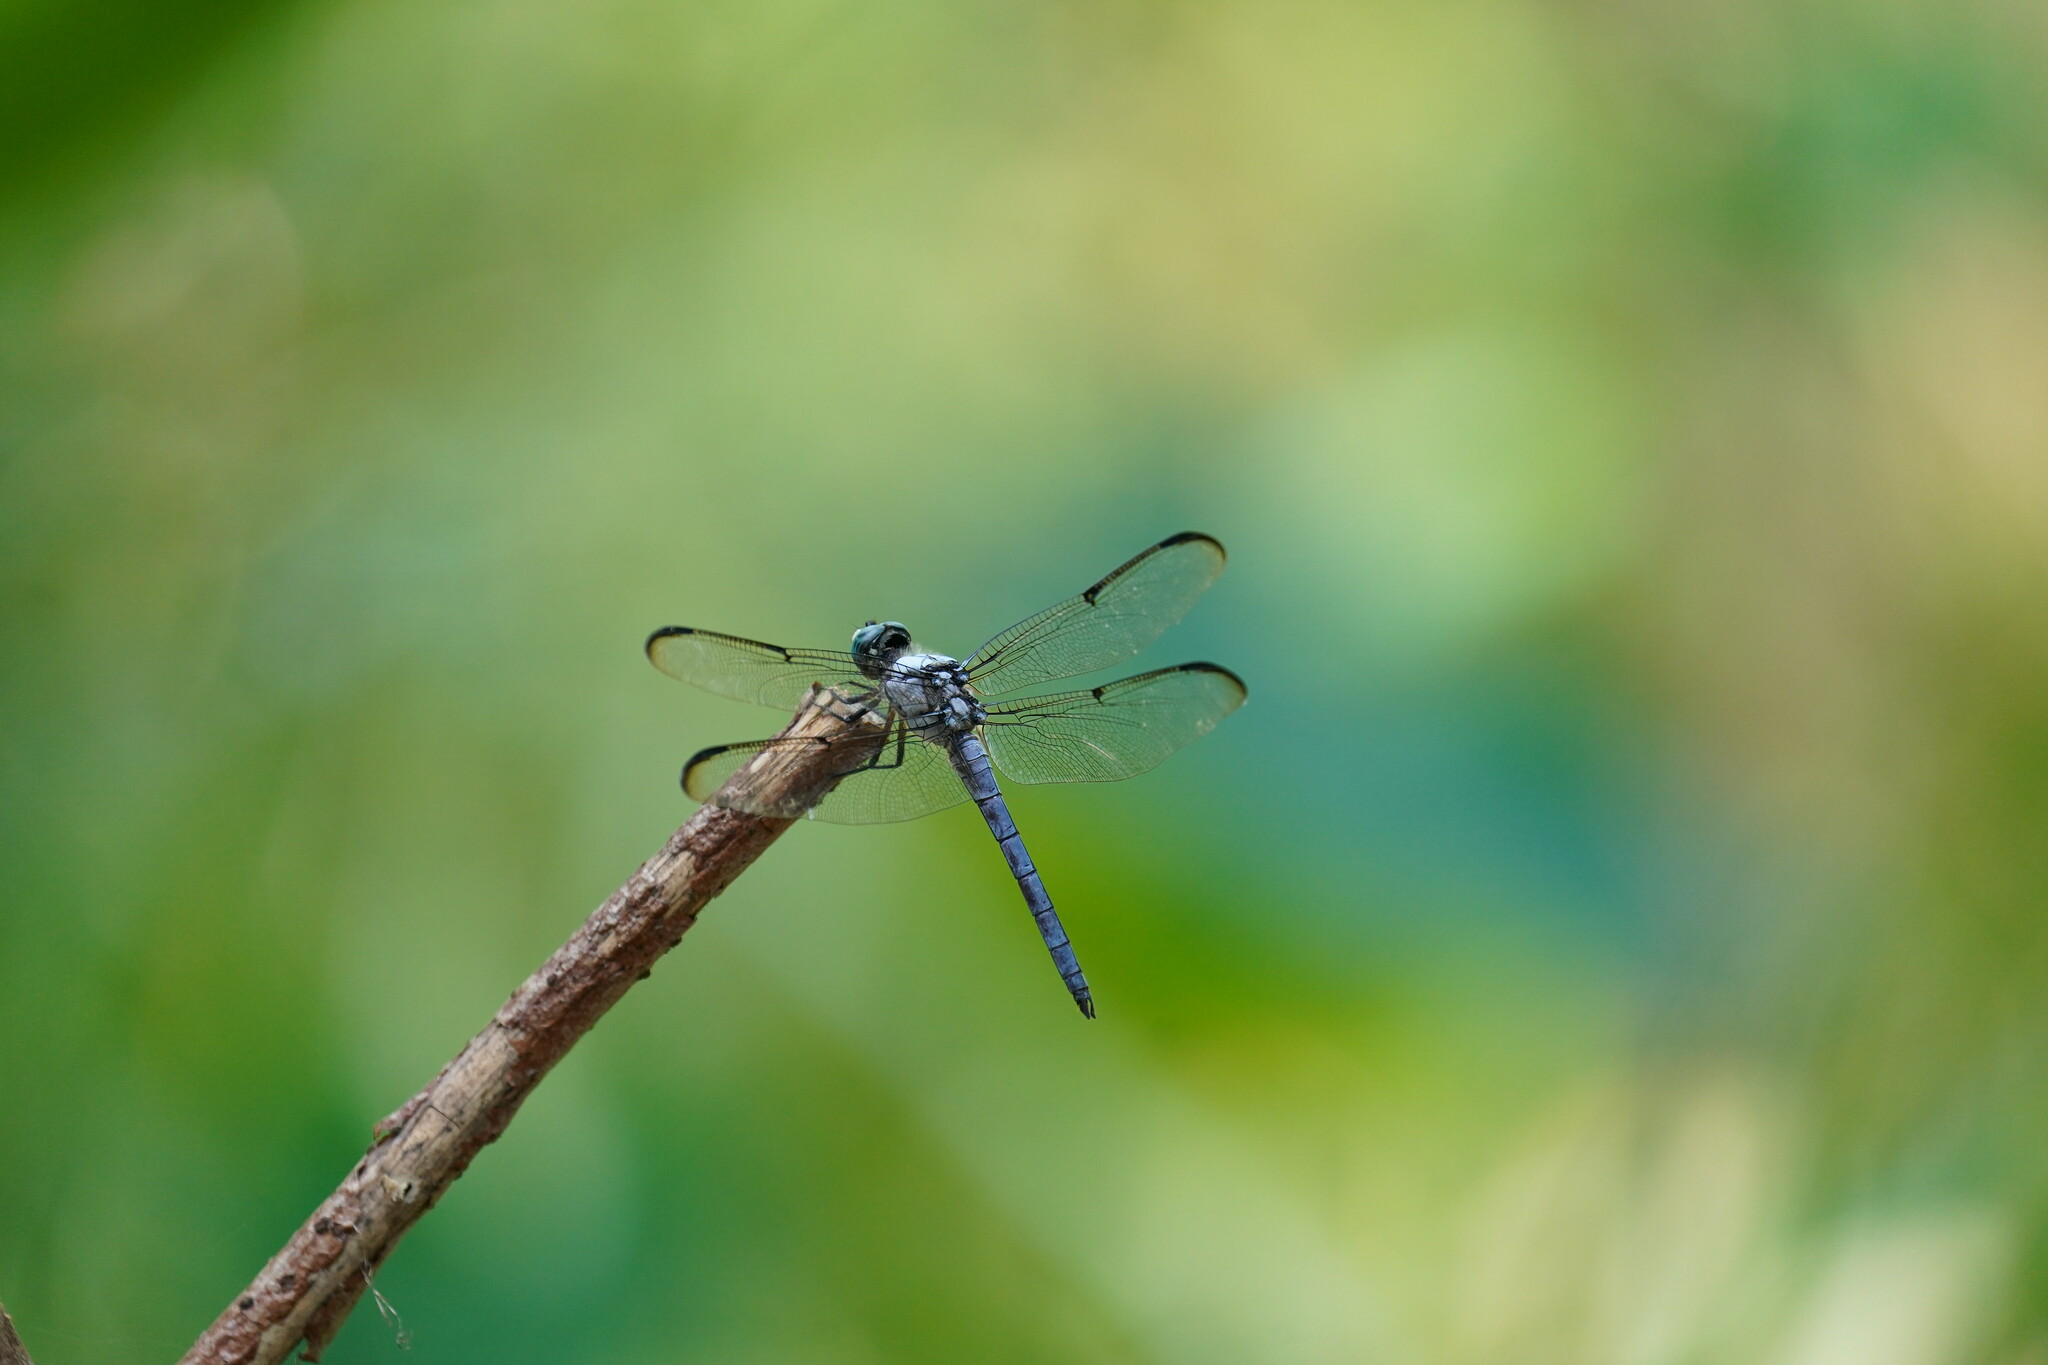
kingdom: Animalia
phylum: Arthropoda
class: Insecta
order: Odonata
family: Libellulidae
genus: Libellula
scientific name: Libellula vibrans
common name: Great blue skimmer
